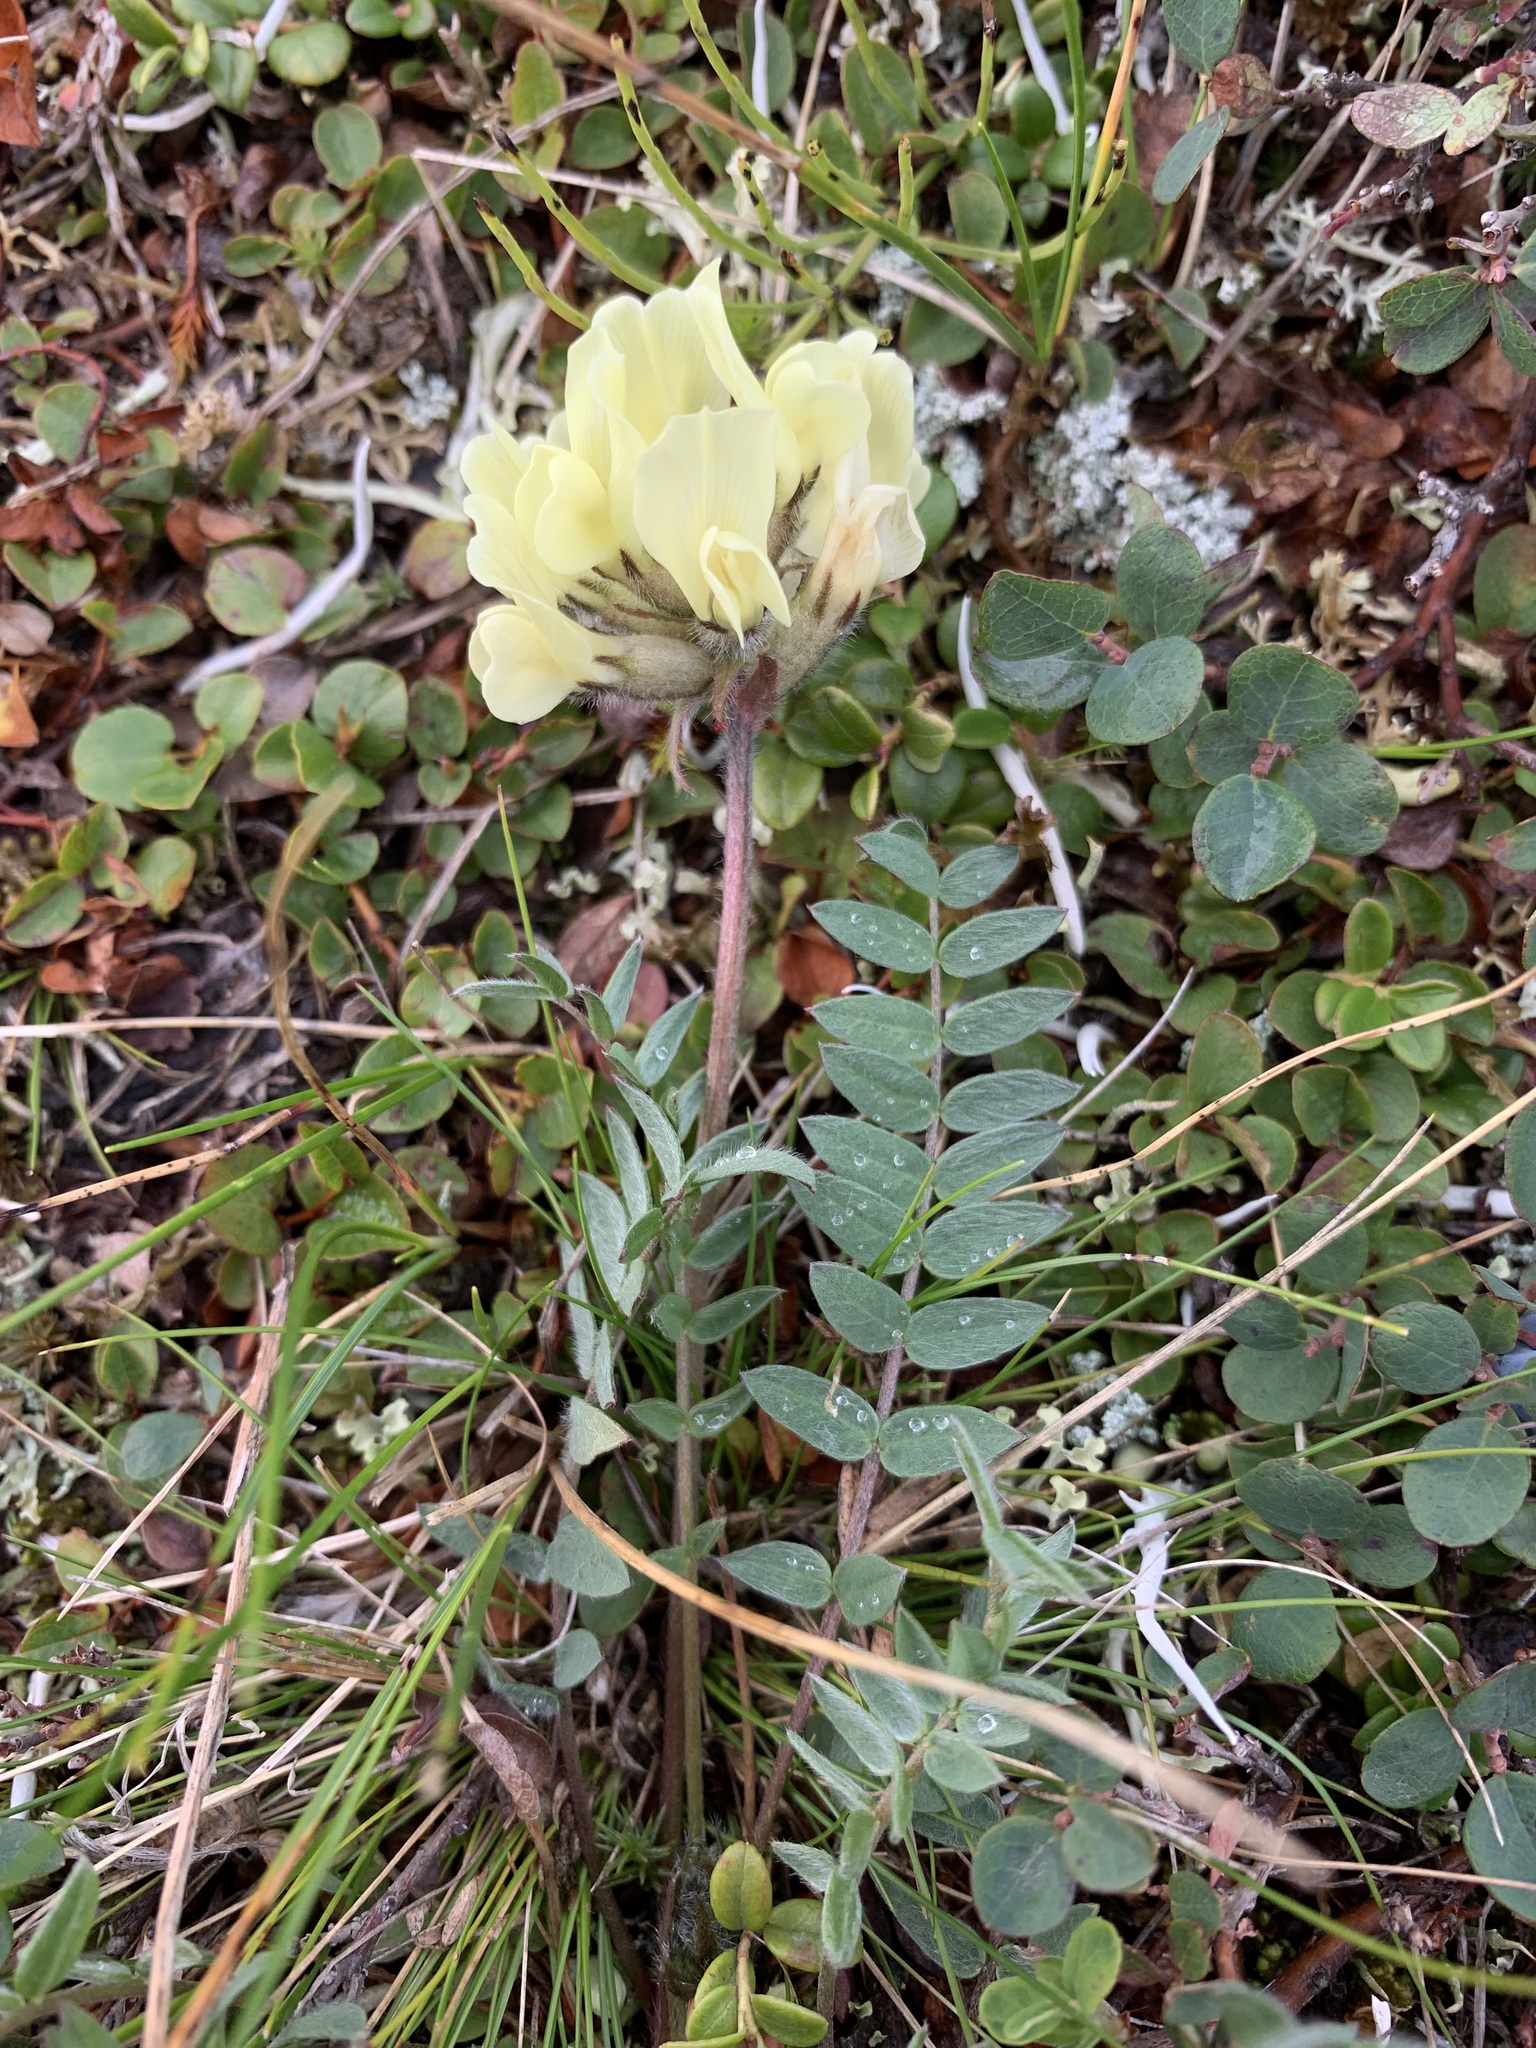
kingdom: Plantae
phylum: Tracheophyta
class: Magnoliopsida
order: Fabales
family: Fabaceae
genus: Oxytropis
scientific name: Oxytropis sordida
